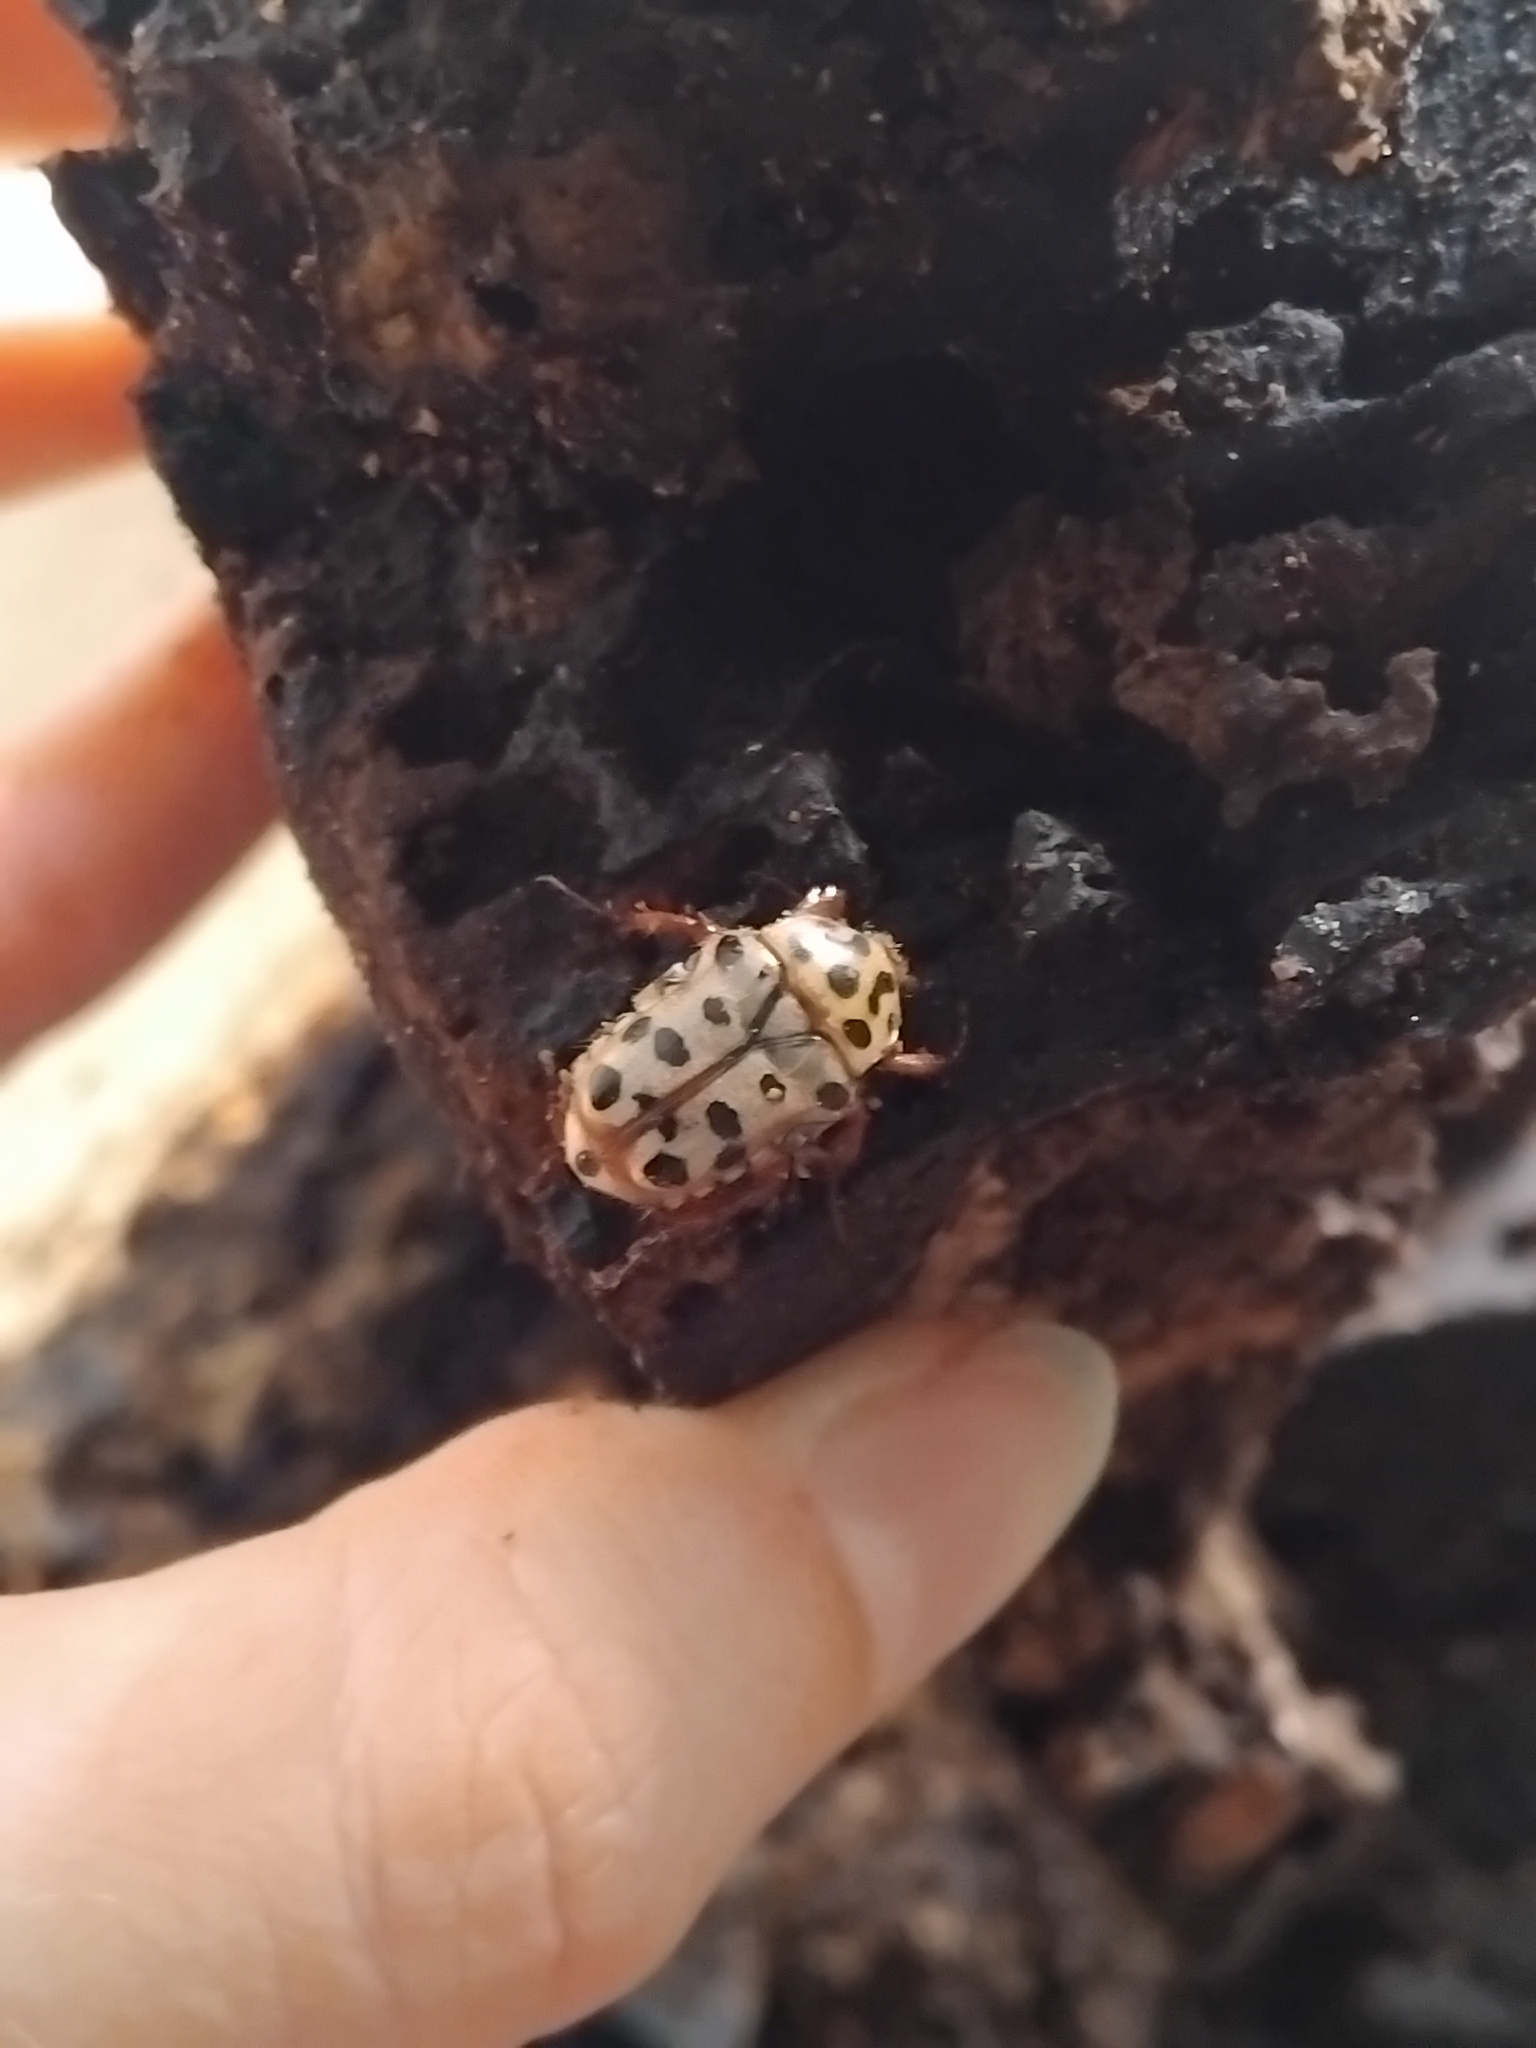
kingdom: Animalia
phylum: Arthropoda
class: Insecta
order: Coleoptera
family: Scarabaeidae
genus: Neorrhina
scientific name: Neorrhina punctatum
